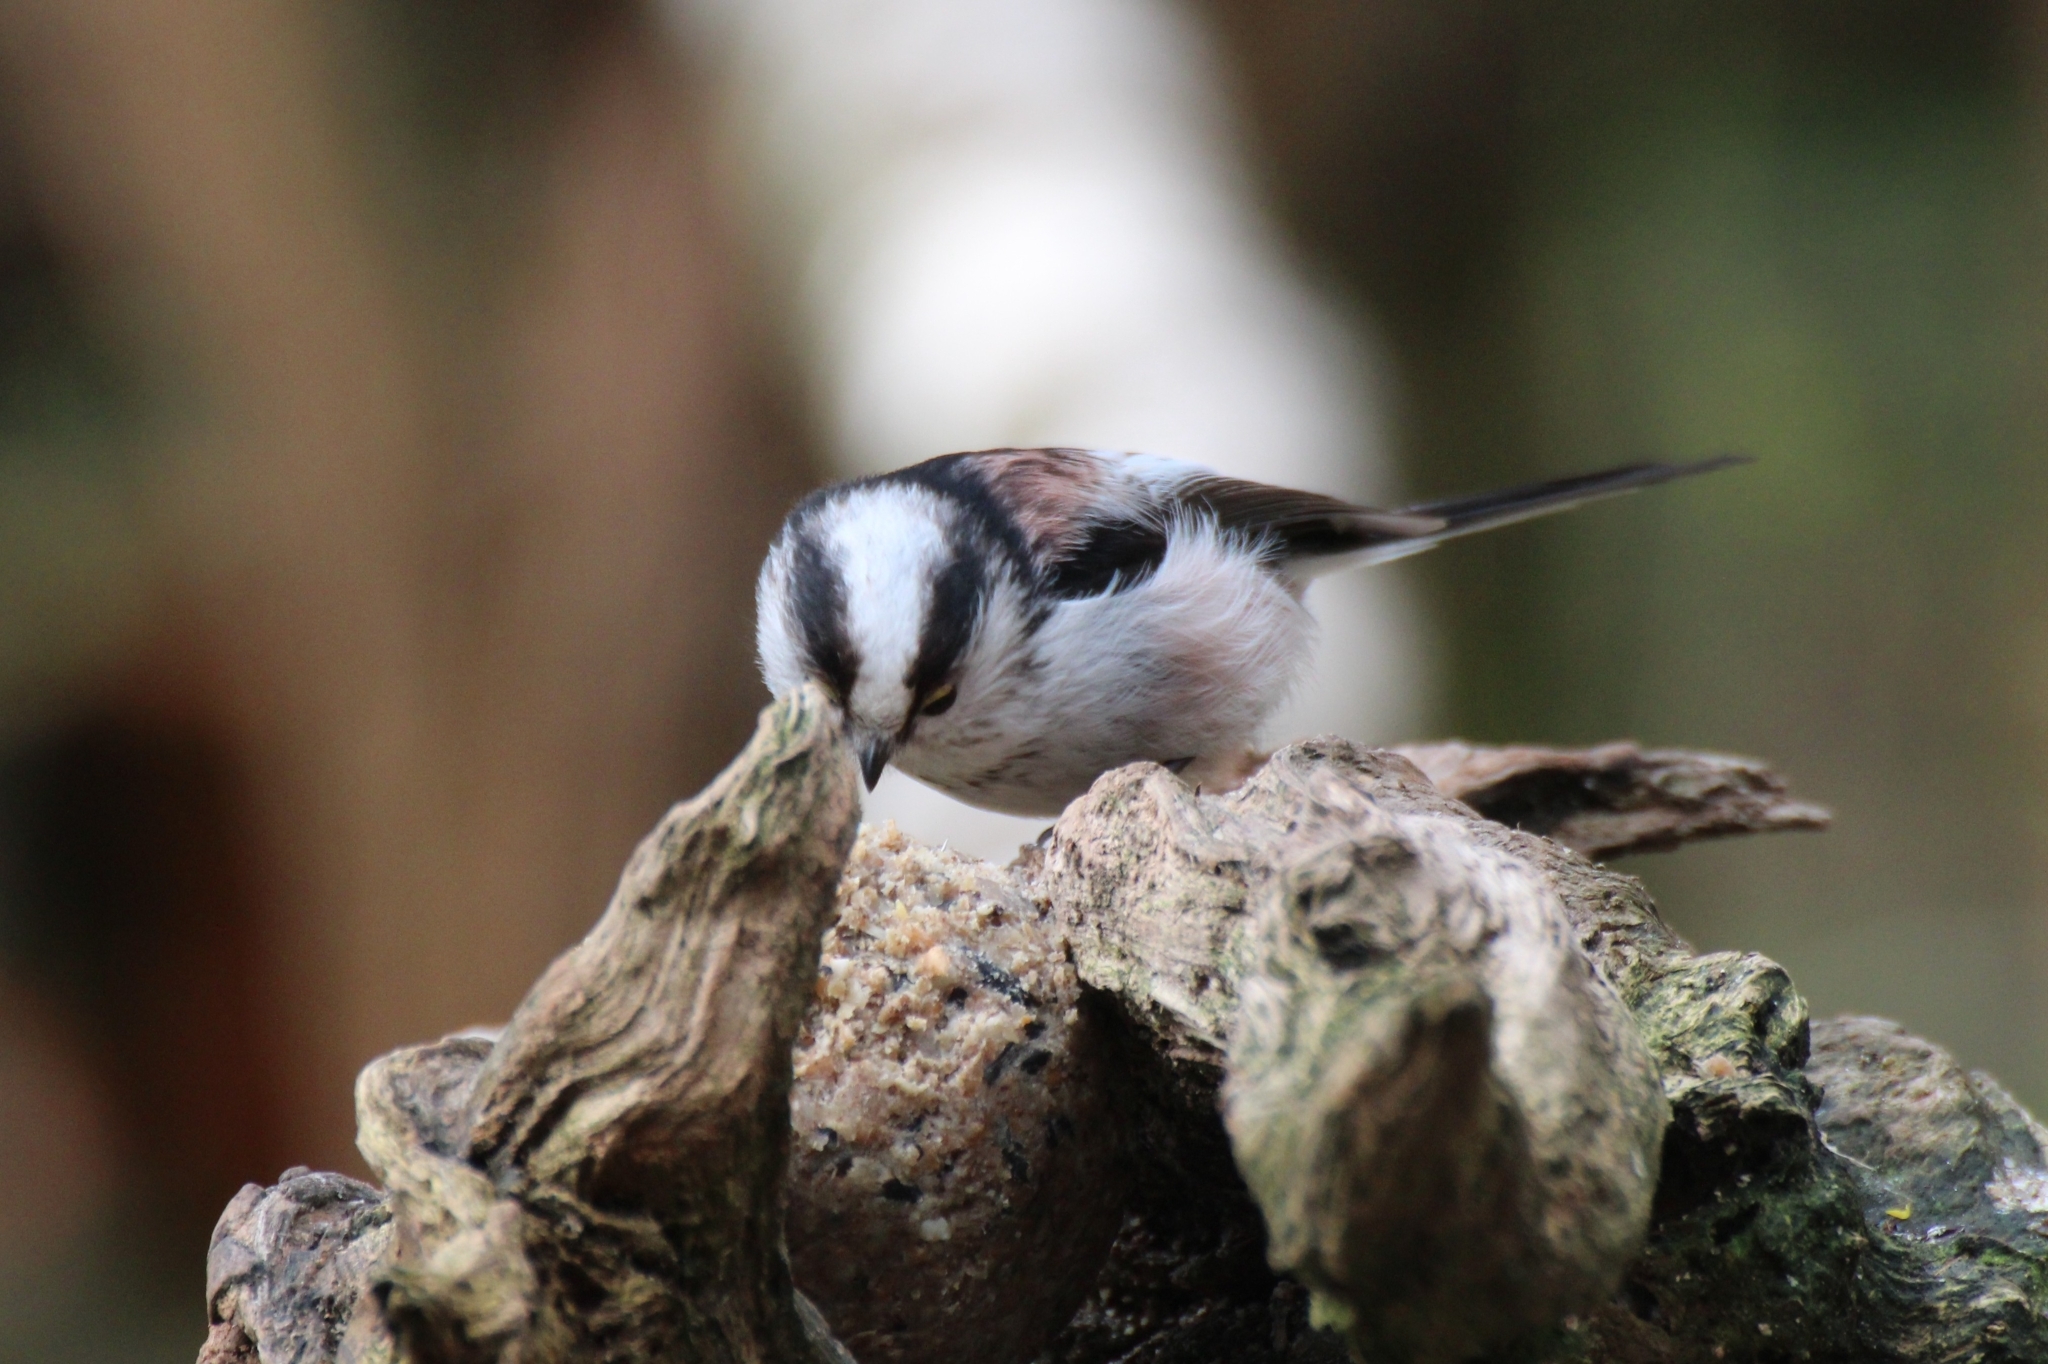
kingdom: Animalia
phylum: Chordata
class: Aves
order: Passeriformes
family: Aegithalidae
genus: Aegithalos
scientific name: Aegithalos caudatus
